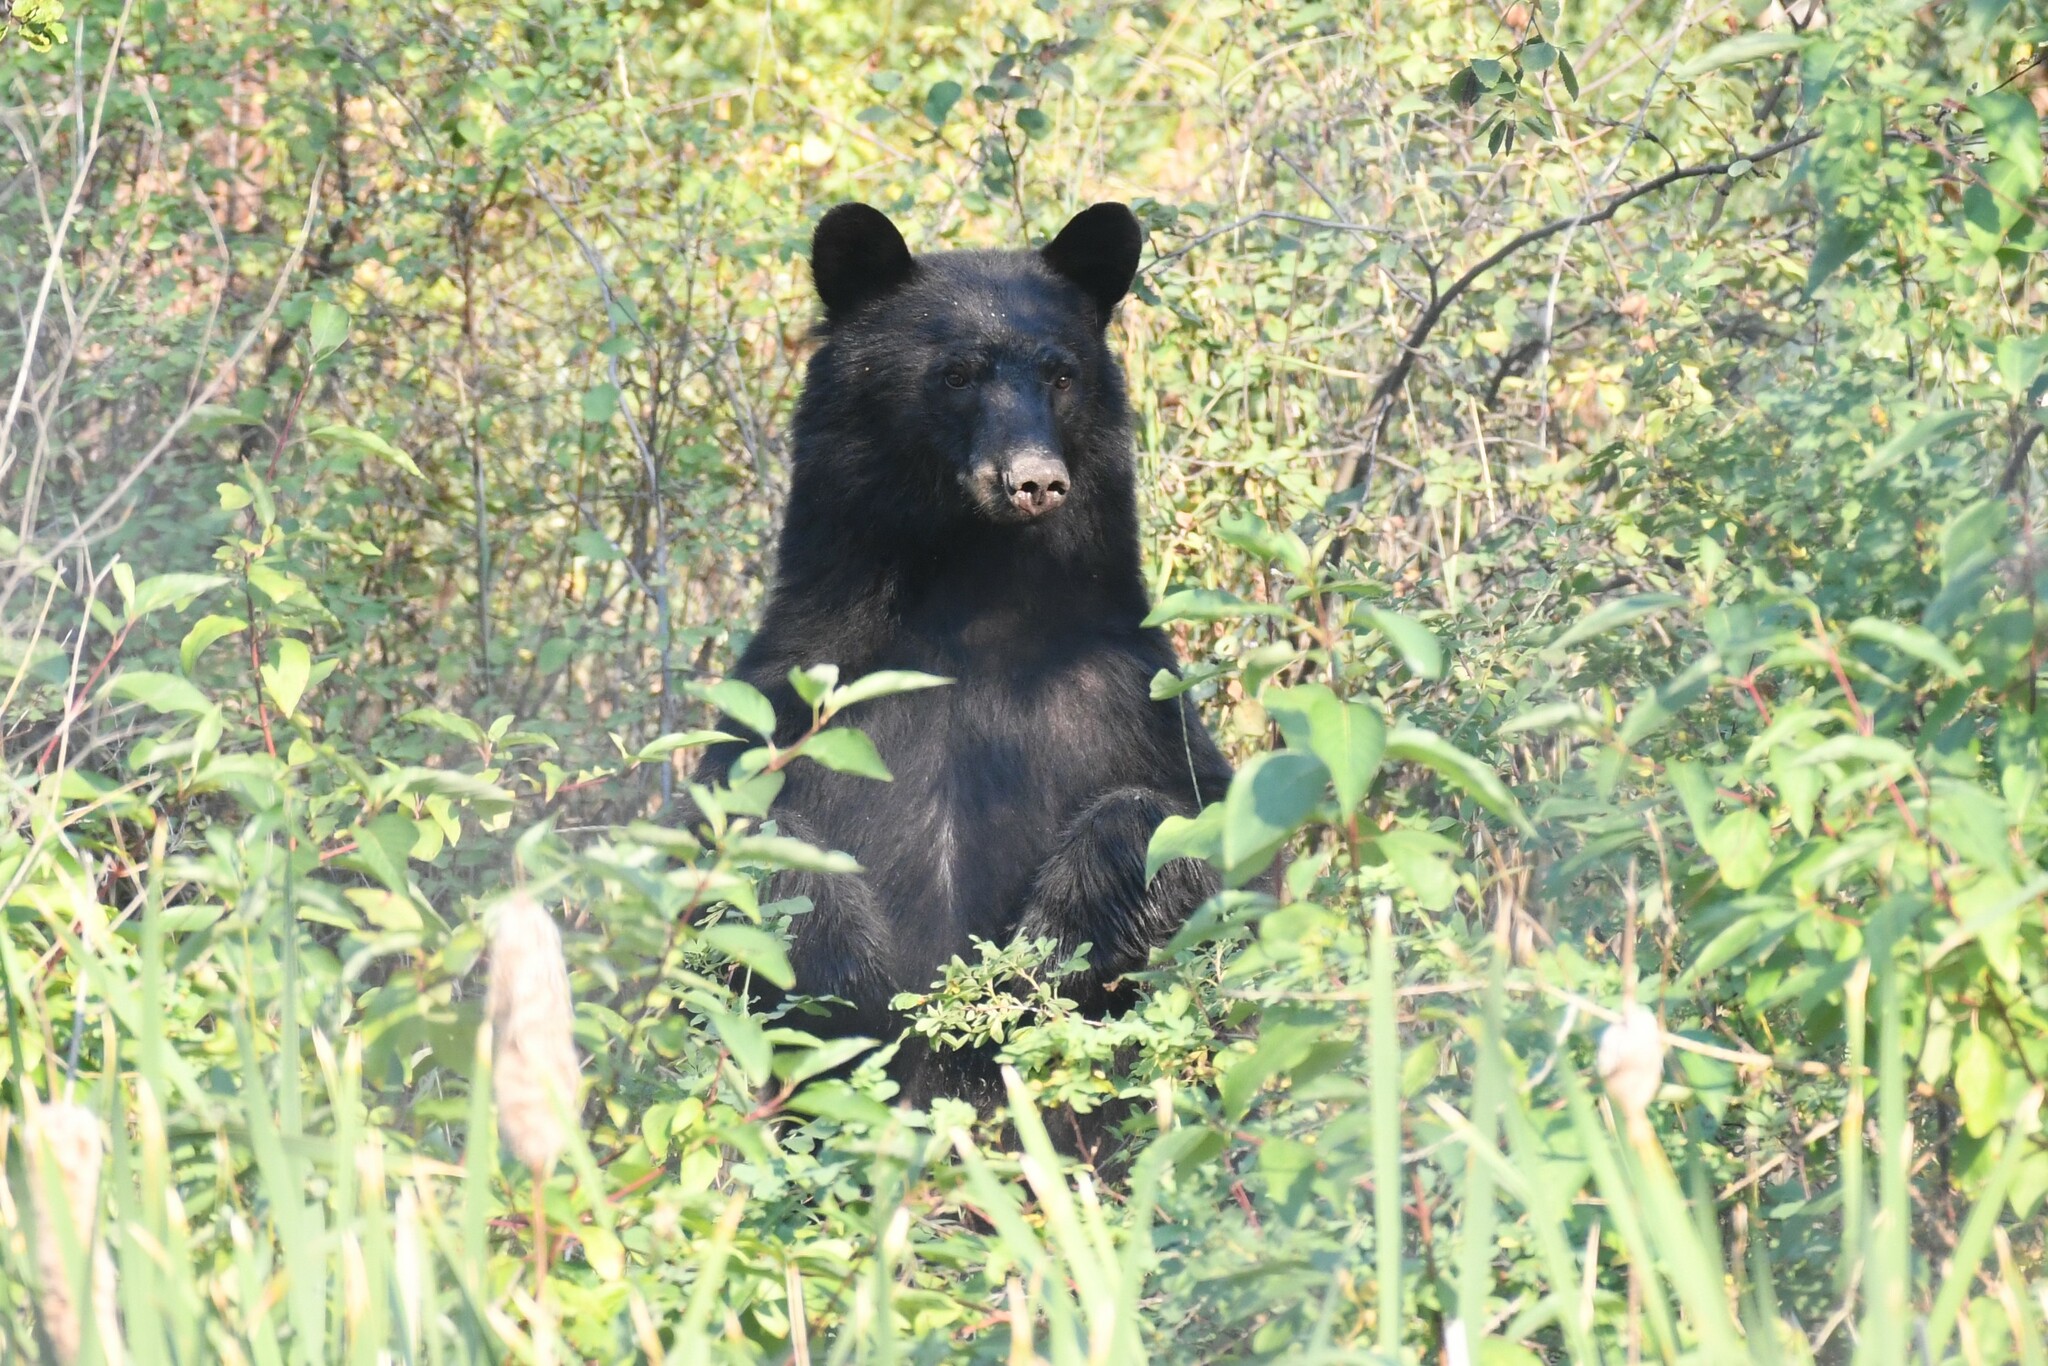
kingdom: Animalia
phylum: Chordata
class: Mammalia
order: Carnivora
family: Ursidae
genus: Ursus
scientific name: Ursus americanus
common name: American black bear
